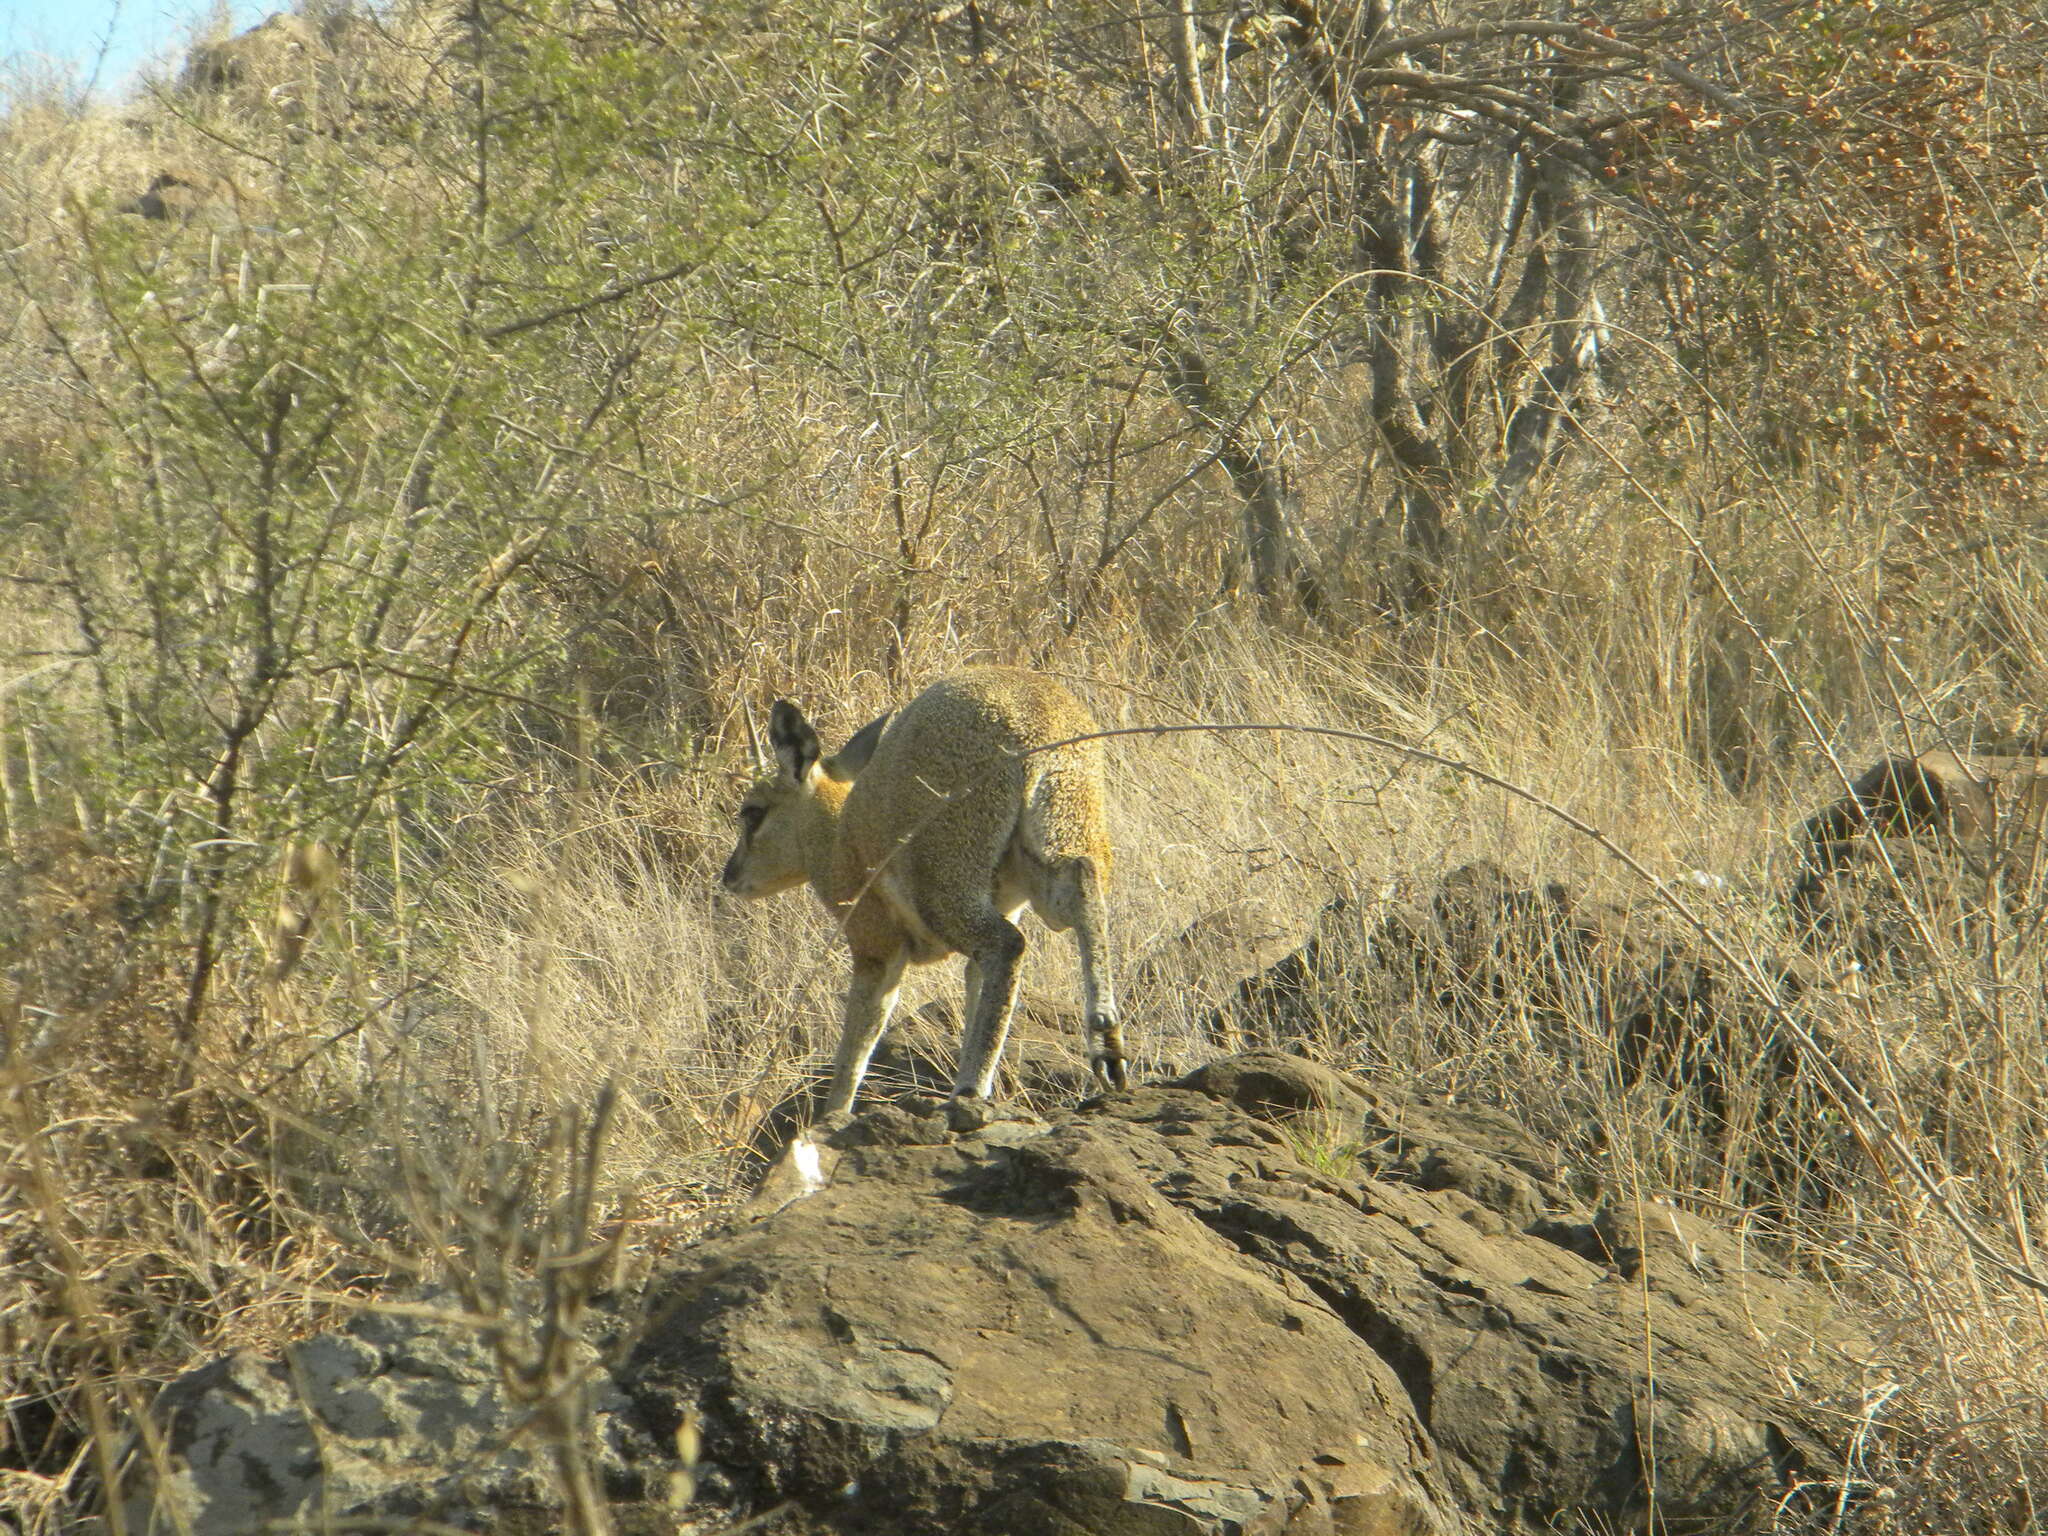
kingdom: Animalia
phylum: Chordata
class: Mammalia
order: Artiodactyla
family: Bovidae
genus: Oreotragus
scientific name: Oreotragus oreotragus
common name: Klipspringer
